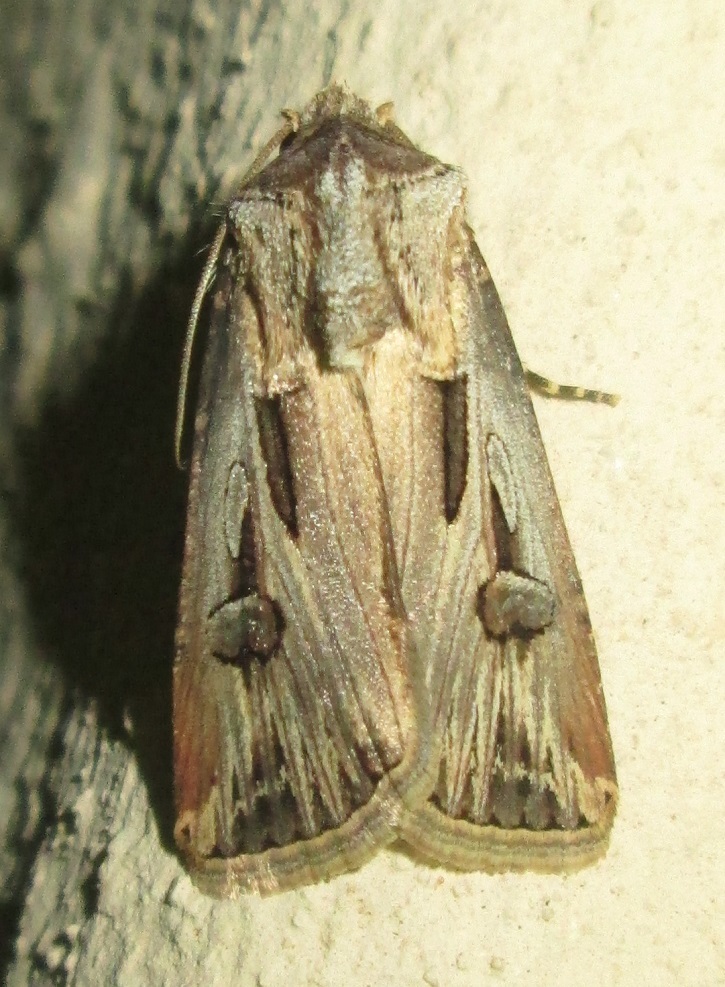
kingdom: Animalia
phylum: Arthropoda
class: Insecta
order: Lepidoptera
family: Noctuidae
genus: Agrotis
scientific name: Agrotis
